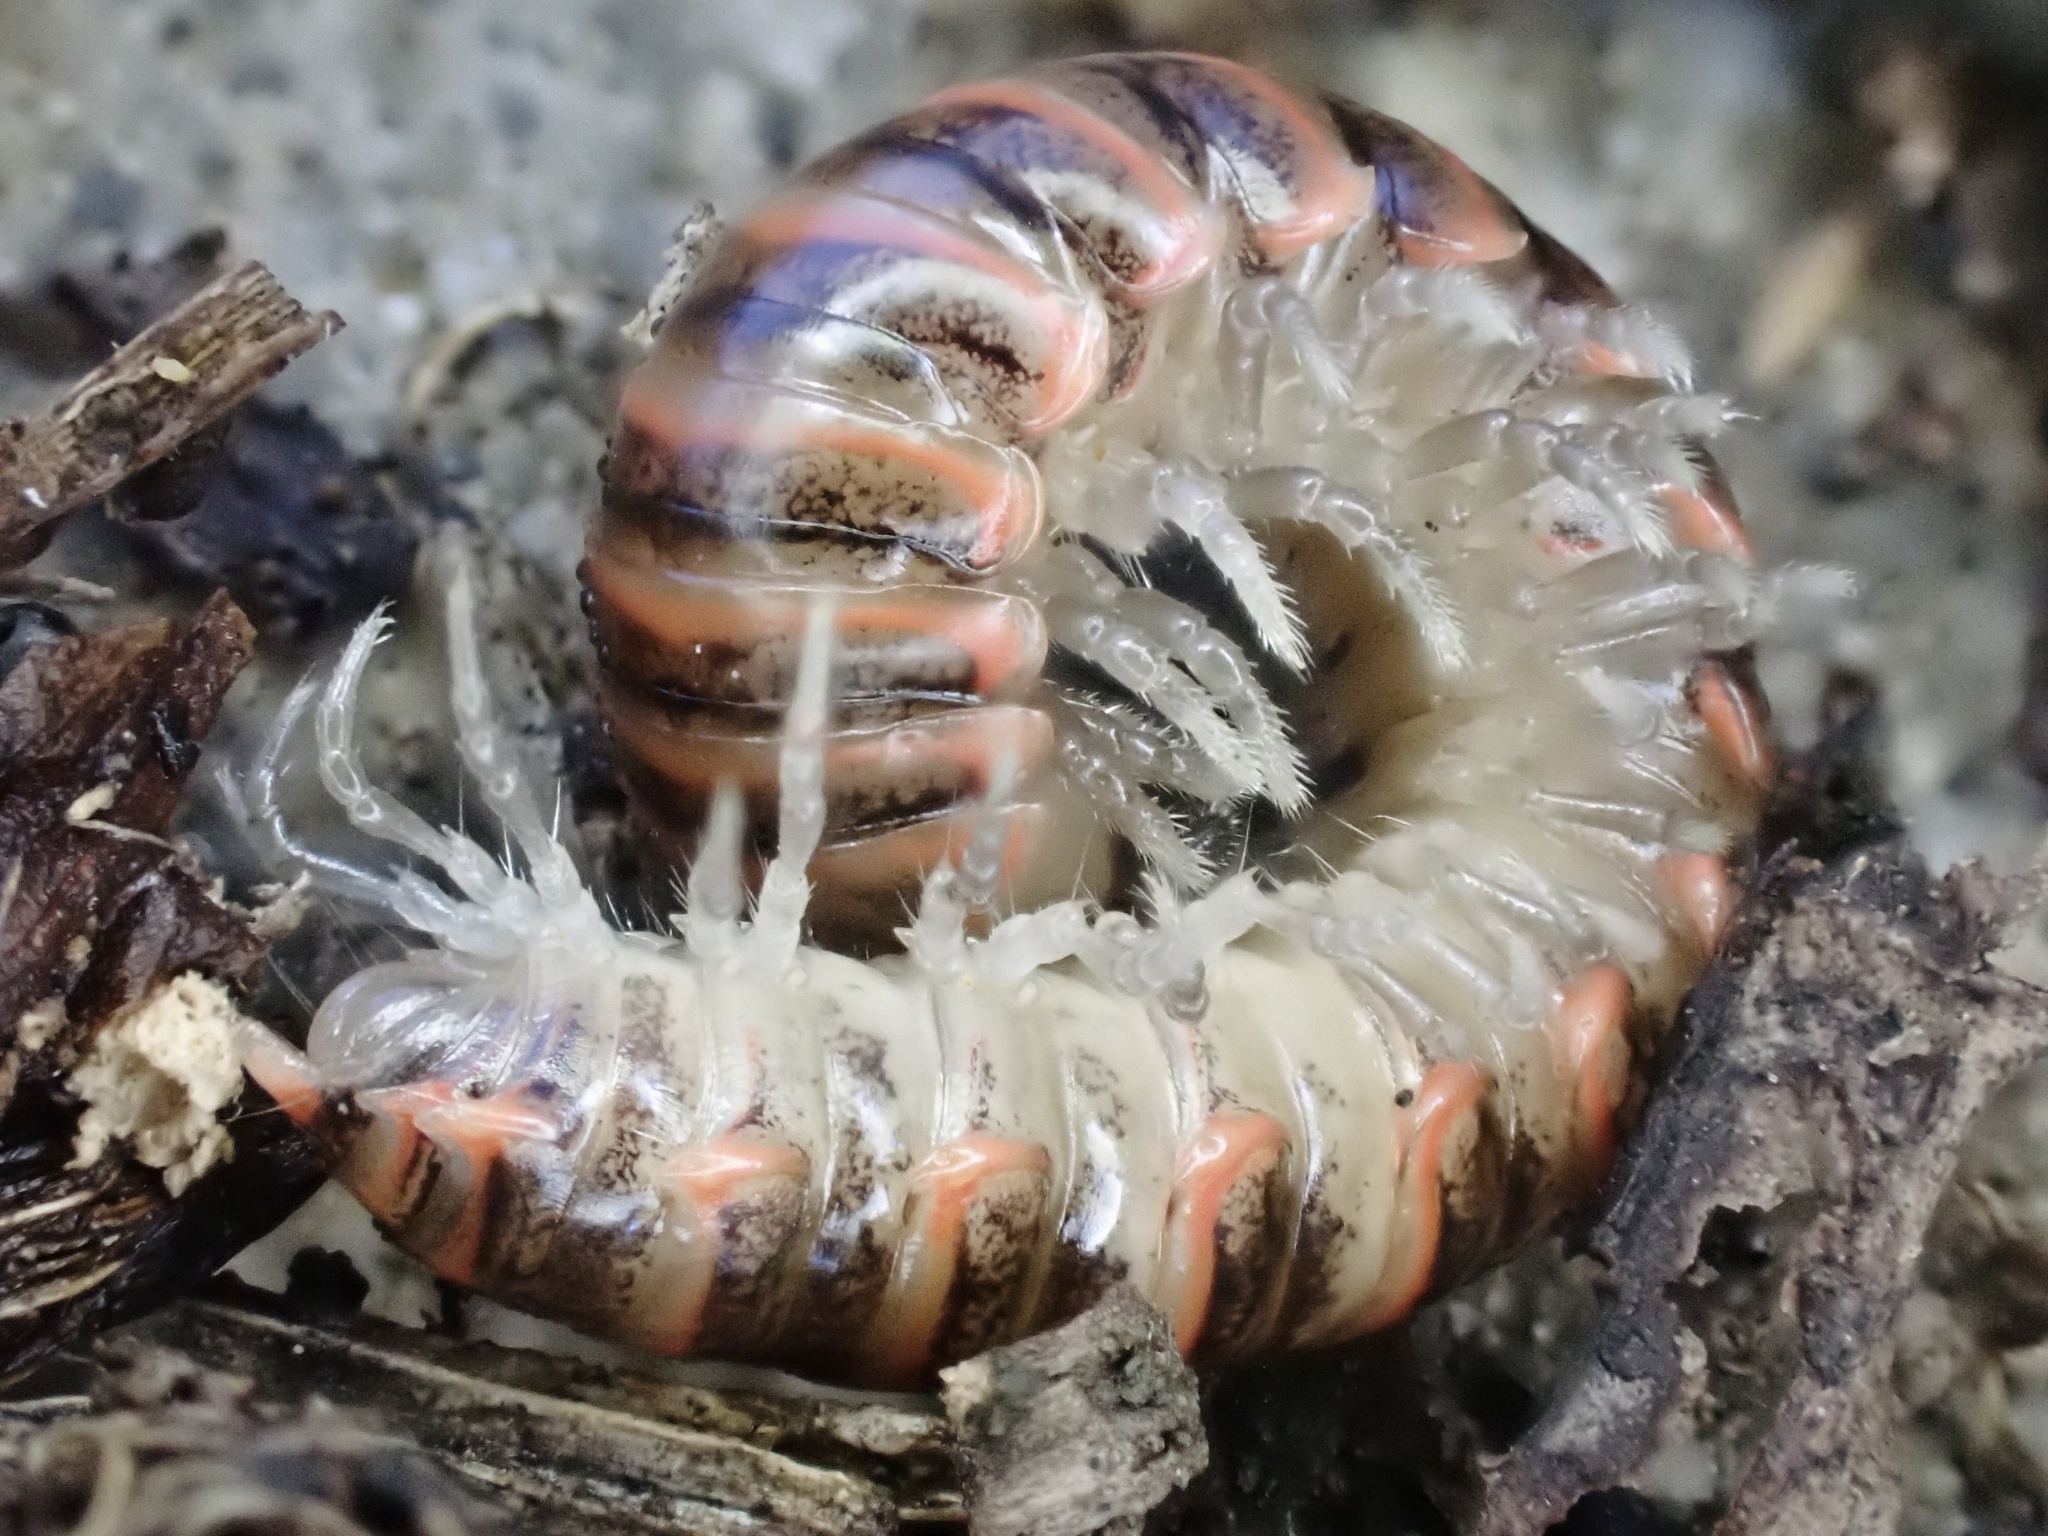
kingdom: Animalia
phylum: Arthropoda
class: Diplopoda
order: Polydesmida
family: Xystodesmidae
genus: Oenomaea
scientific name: Oenomaea pulchella
